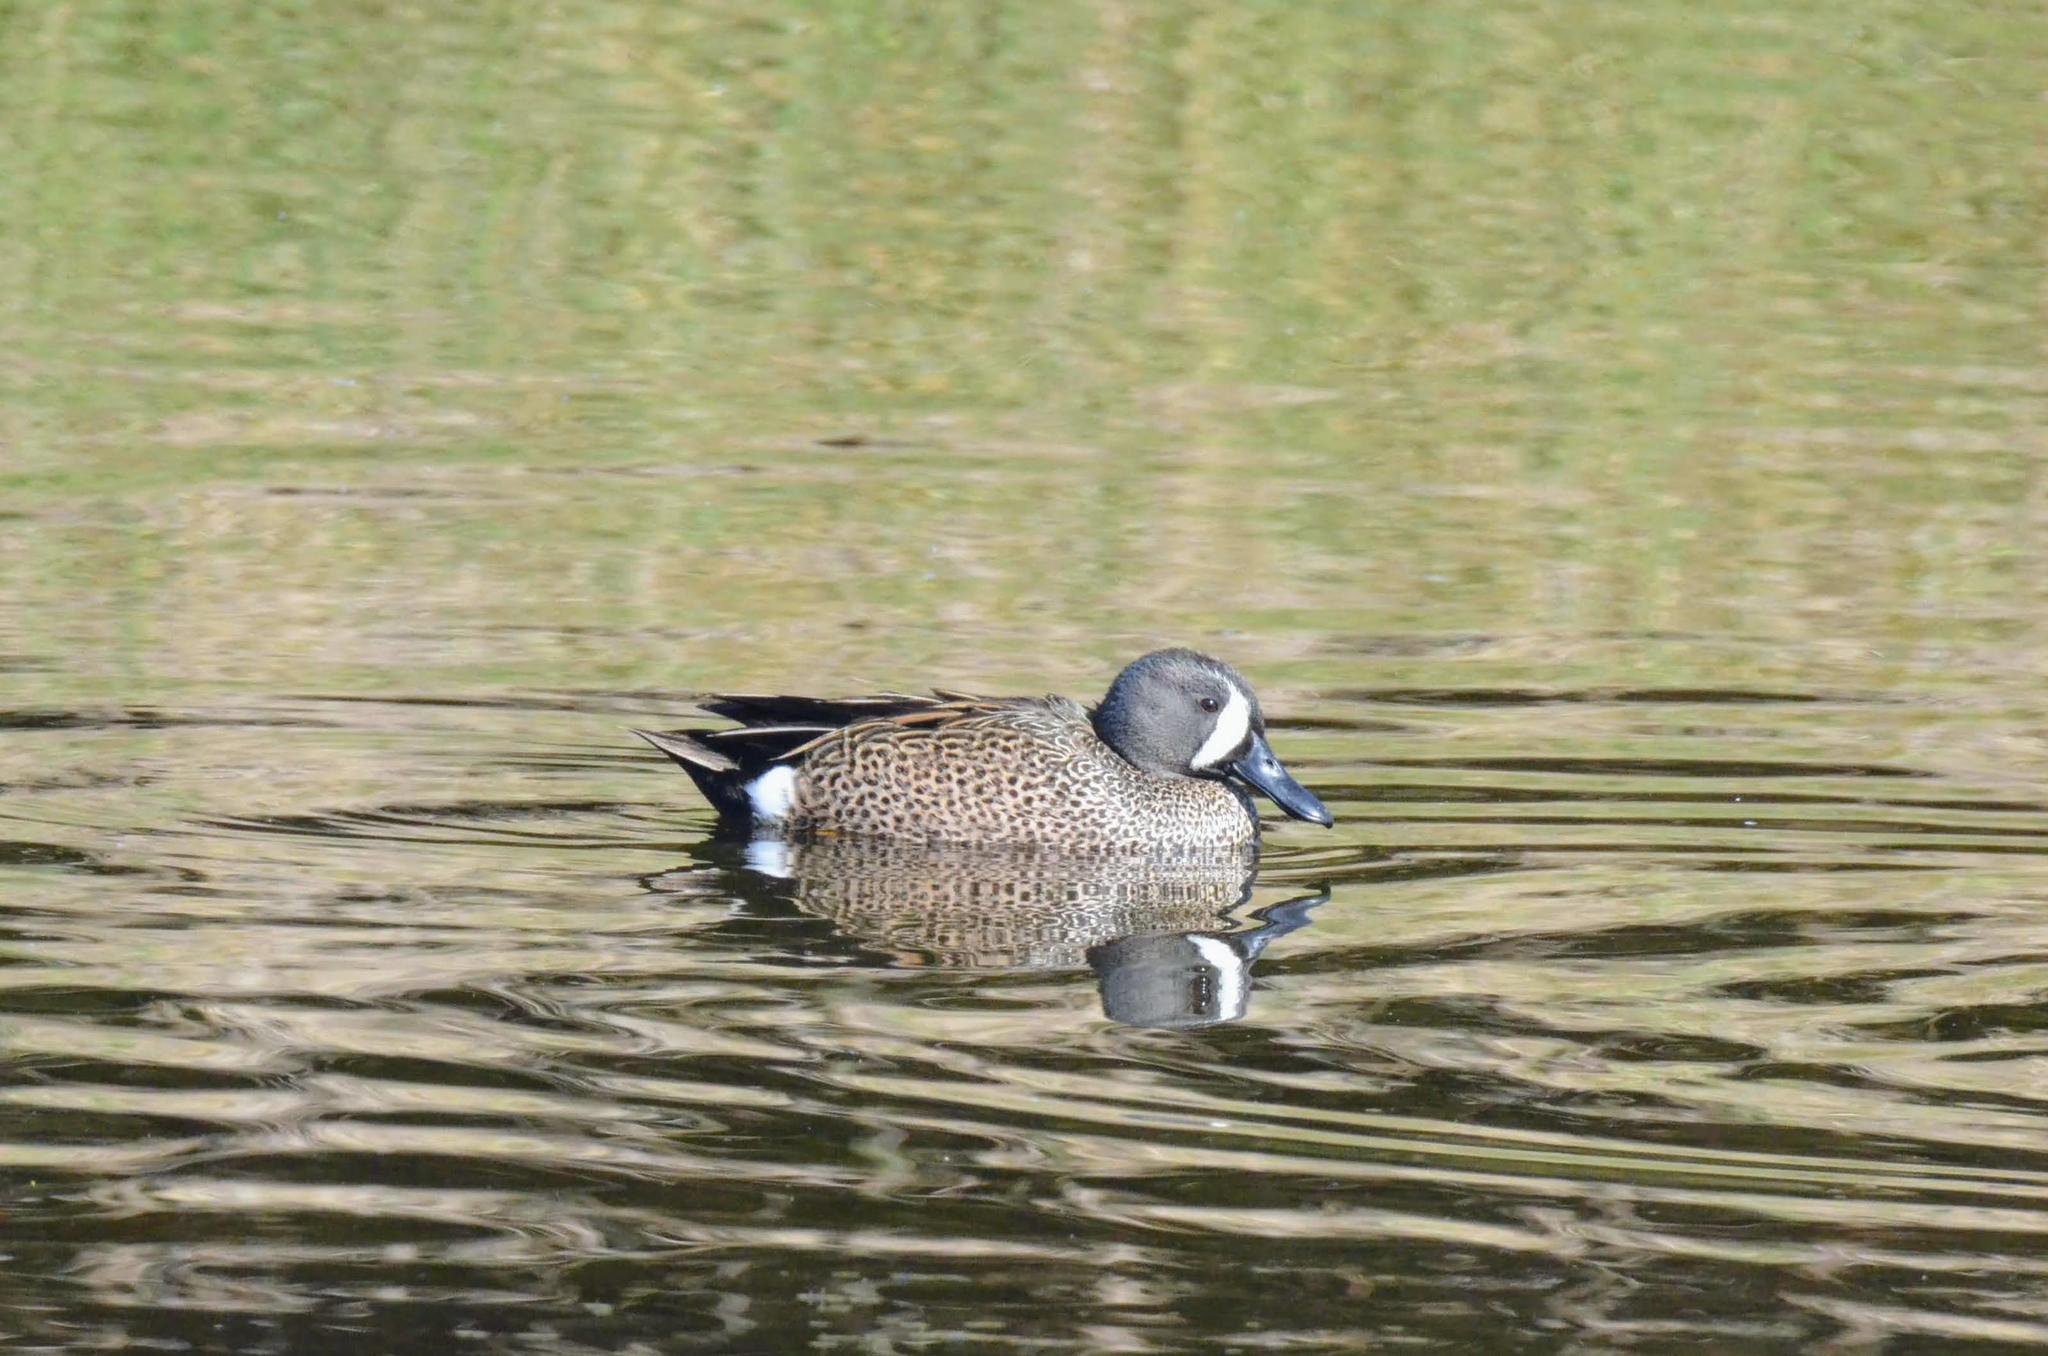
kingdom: Animalia
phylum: Chordata
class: Aves
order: Anseriformes
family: Anatidae
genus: Spatula
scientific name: Spatula discors
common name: Blue-winged teal
